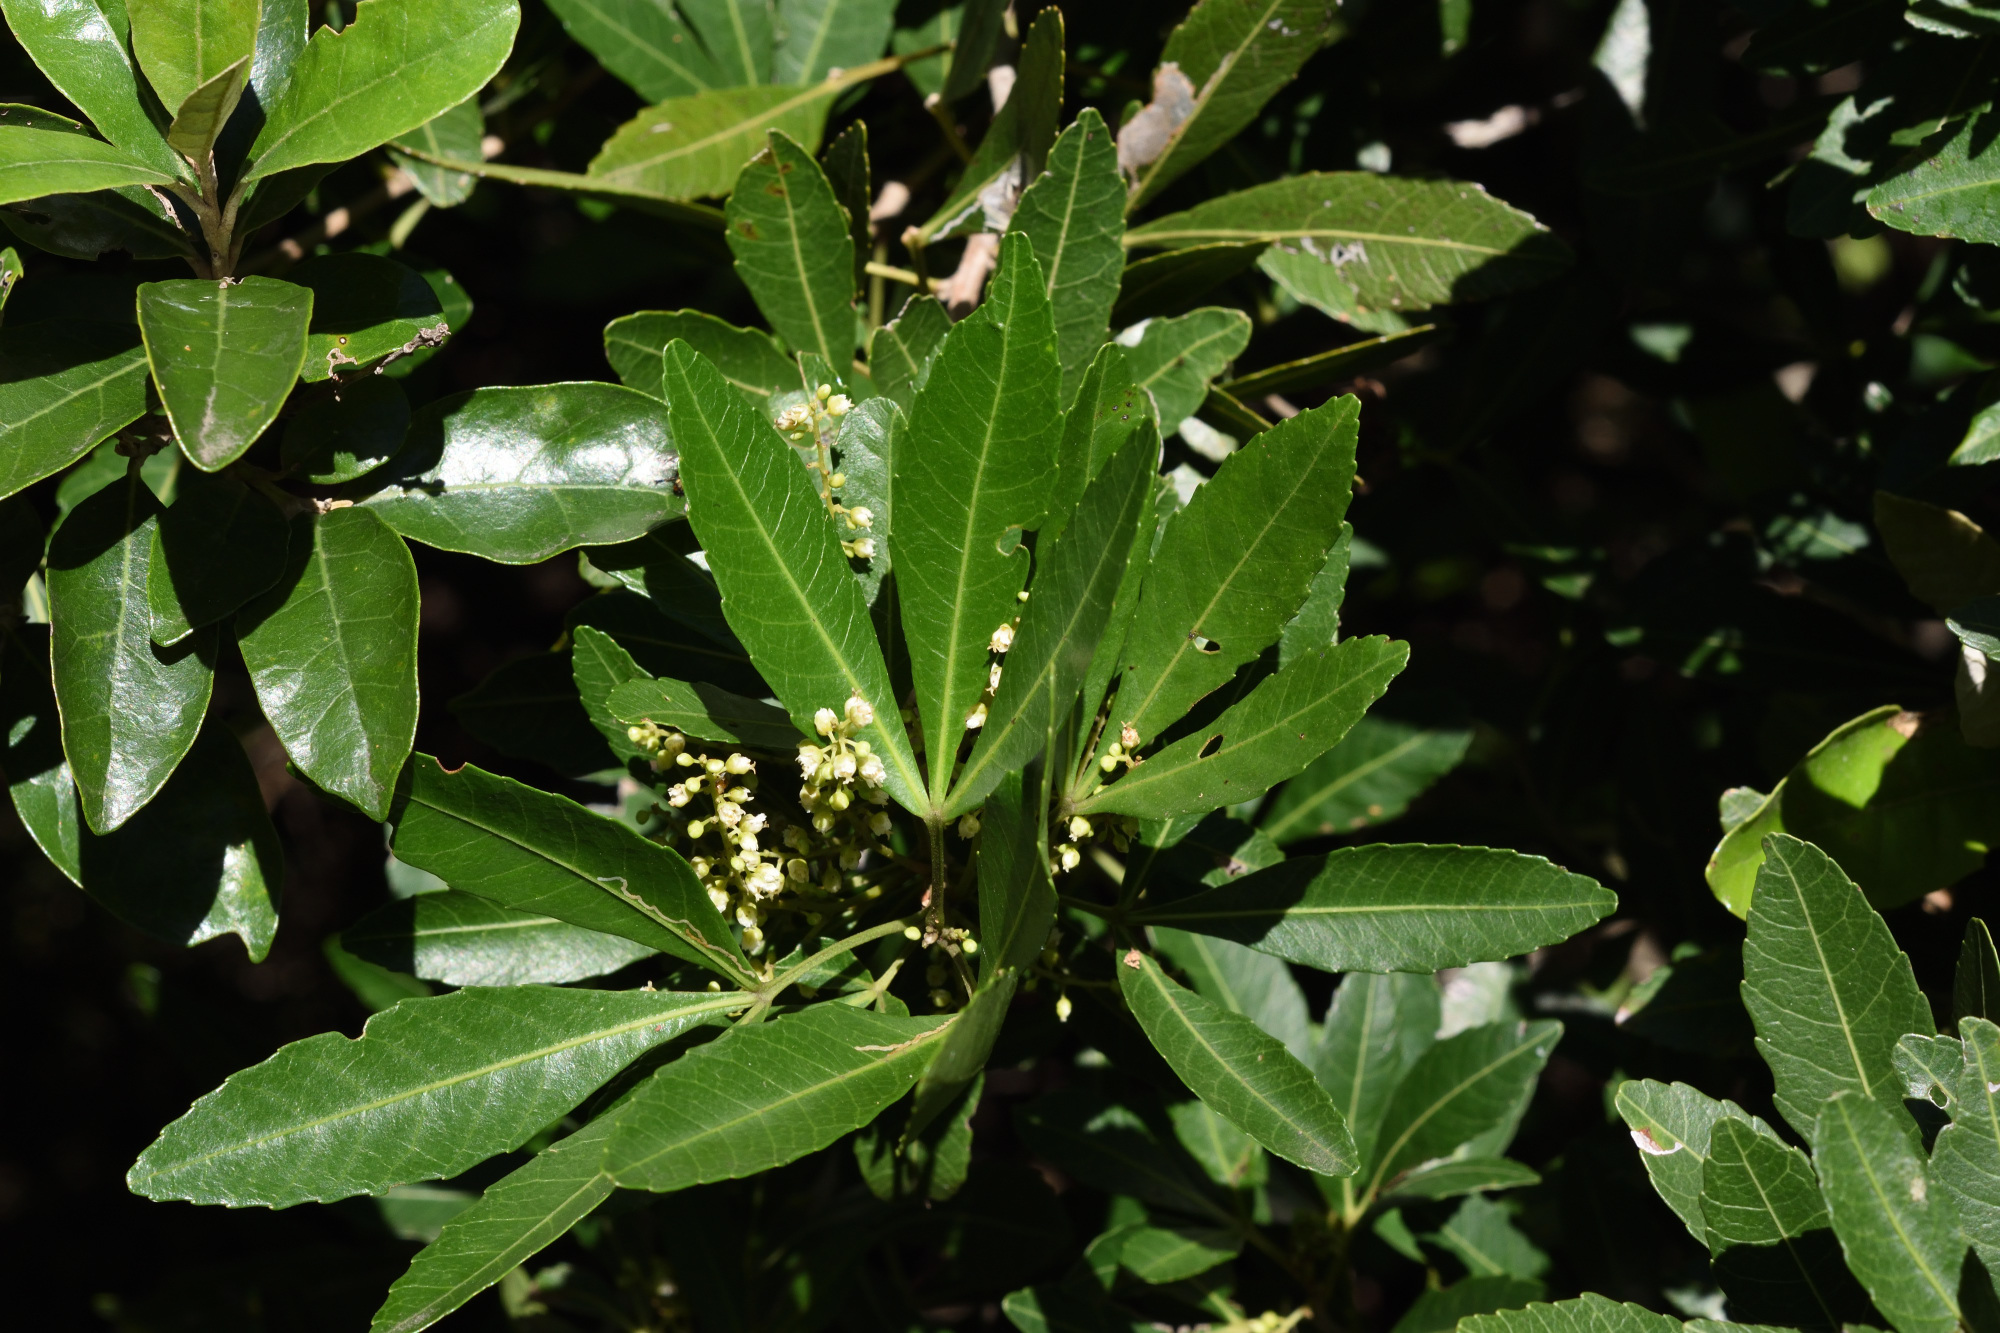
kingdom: Plantae
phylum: Tracheophyta
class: Magnoliopsida
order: Sapindales
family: Sapindaceae
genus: Allophylus
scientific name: Allophylus natalensis
